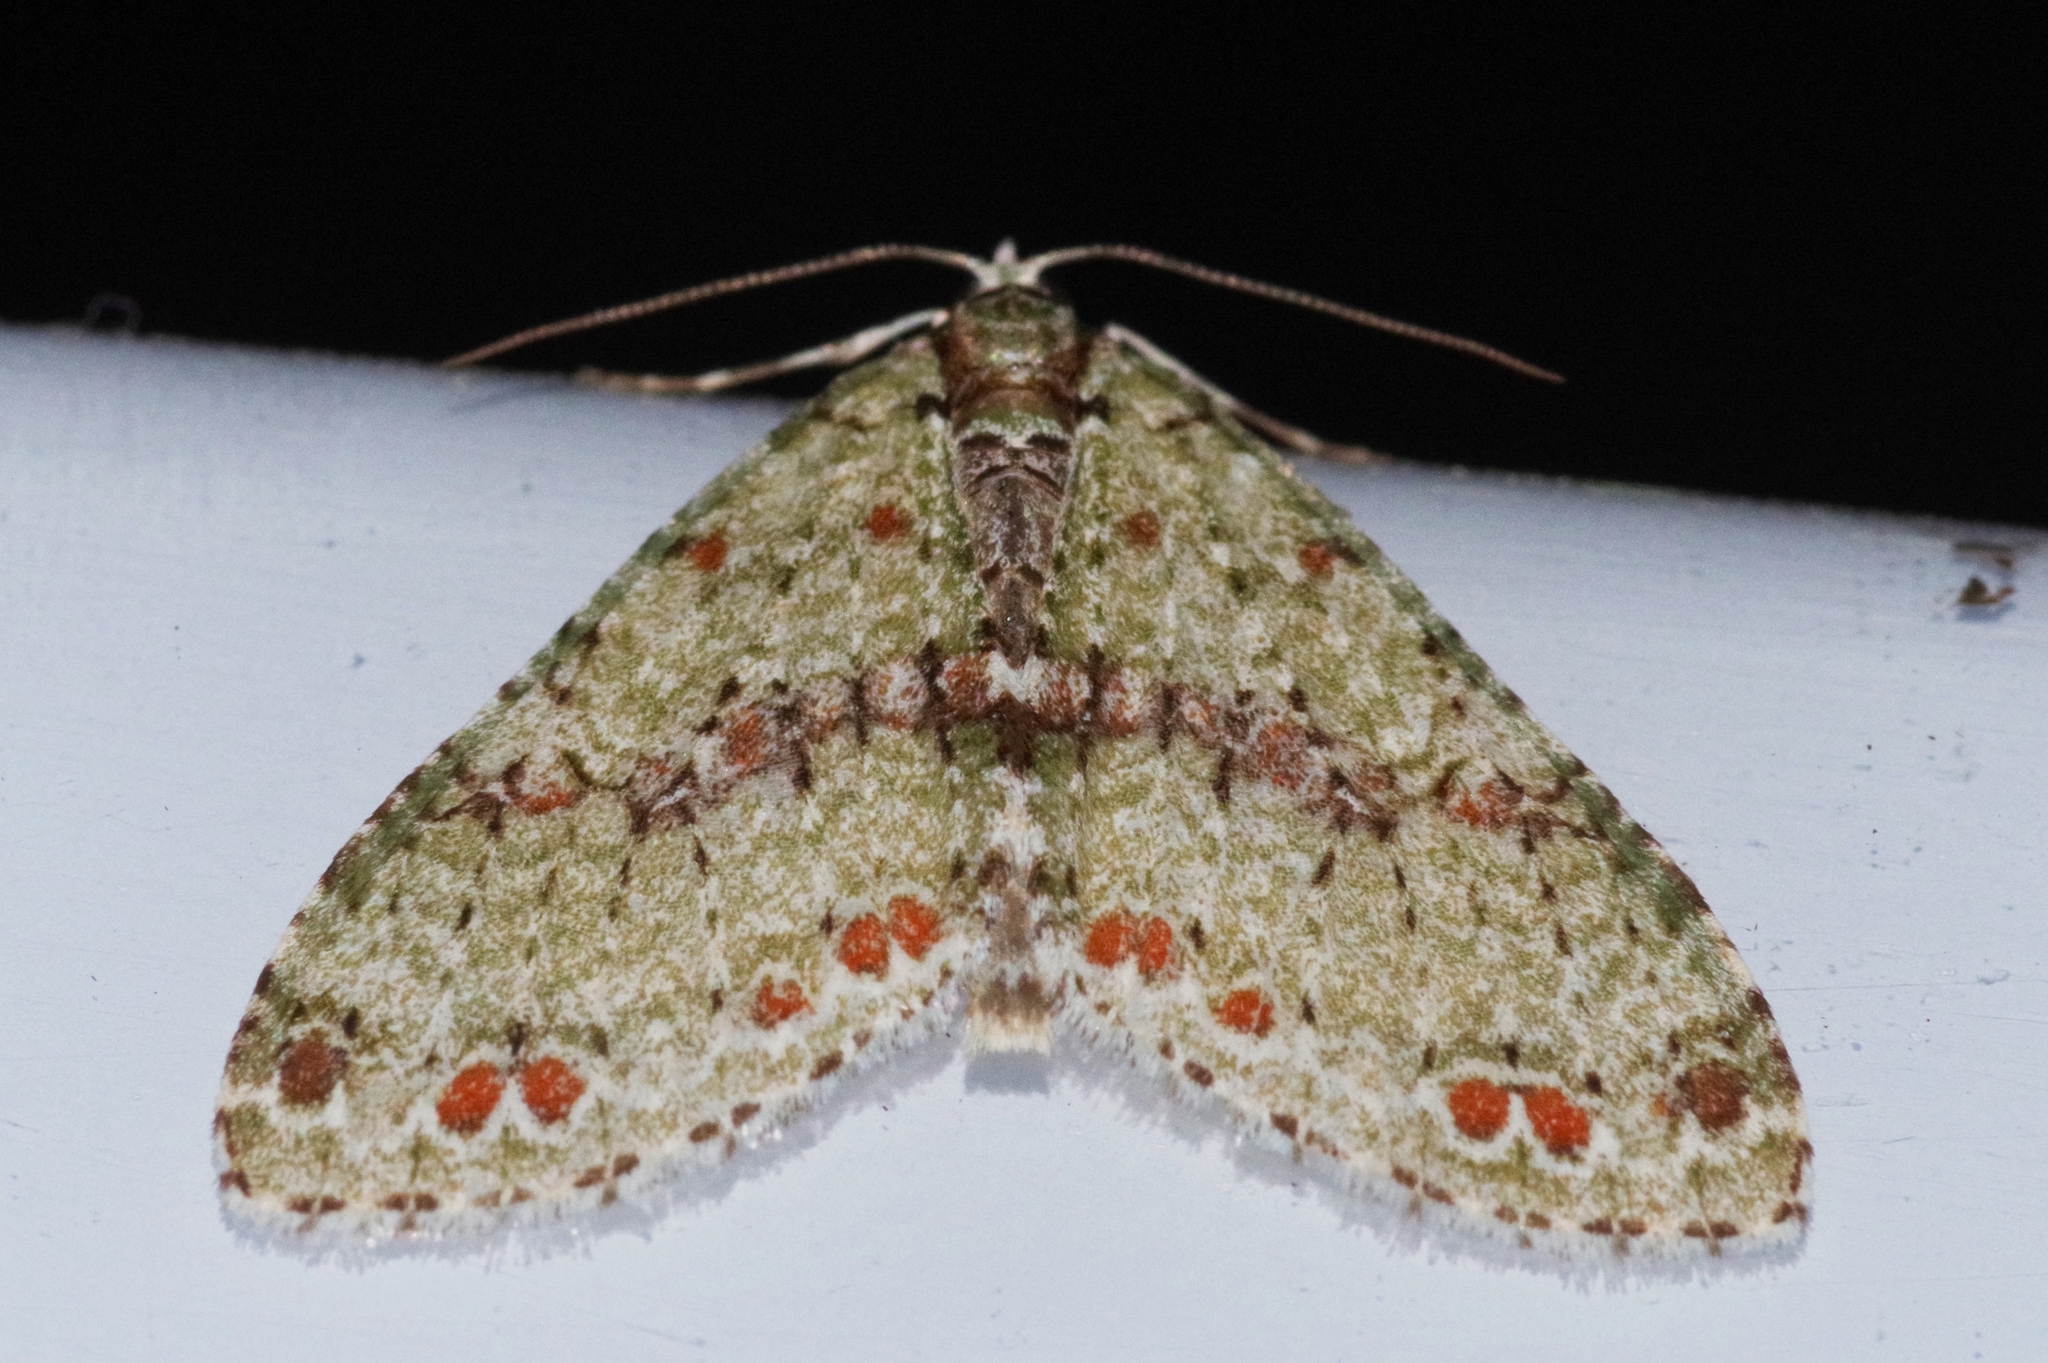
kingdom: Animalia
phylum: Arthropoda
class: Insecta
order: Lepidoptera
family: Geometridae
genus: Trichopterigia
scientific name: Trichopterigia costipunctaria
